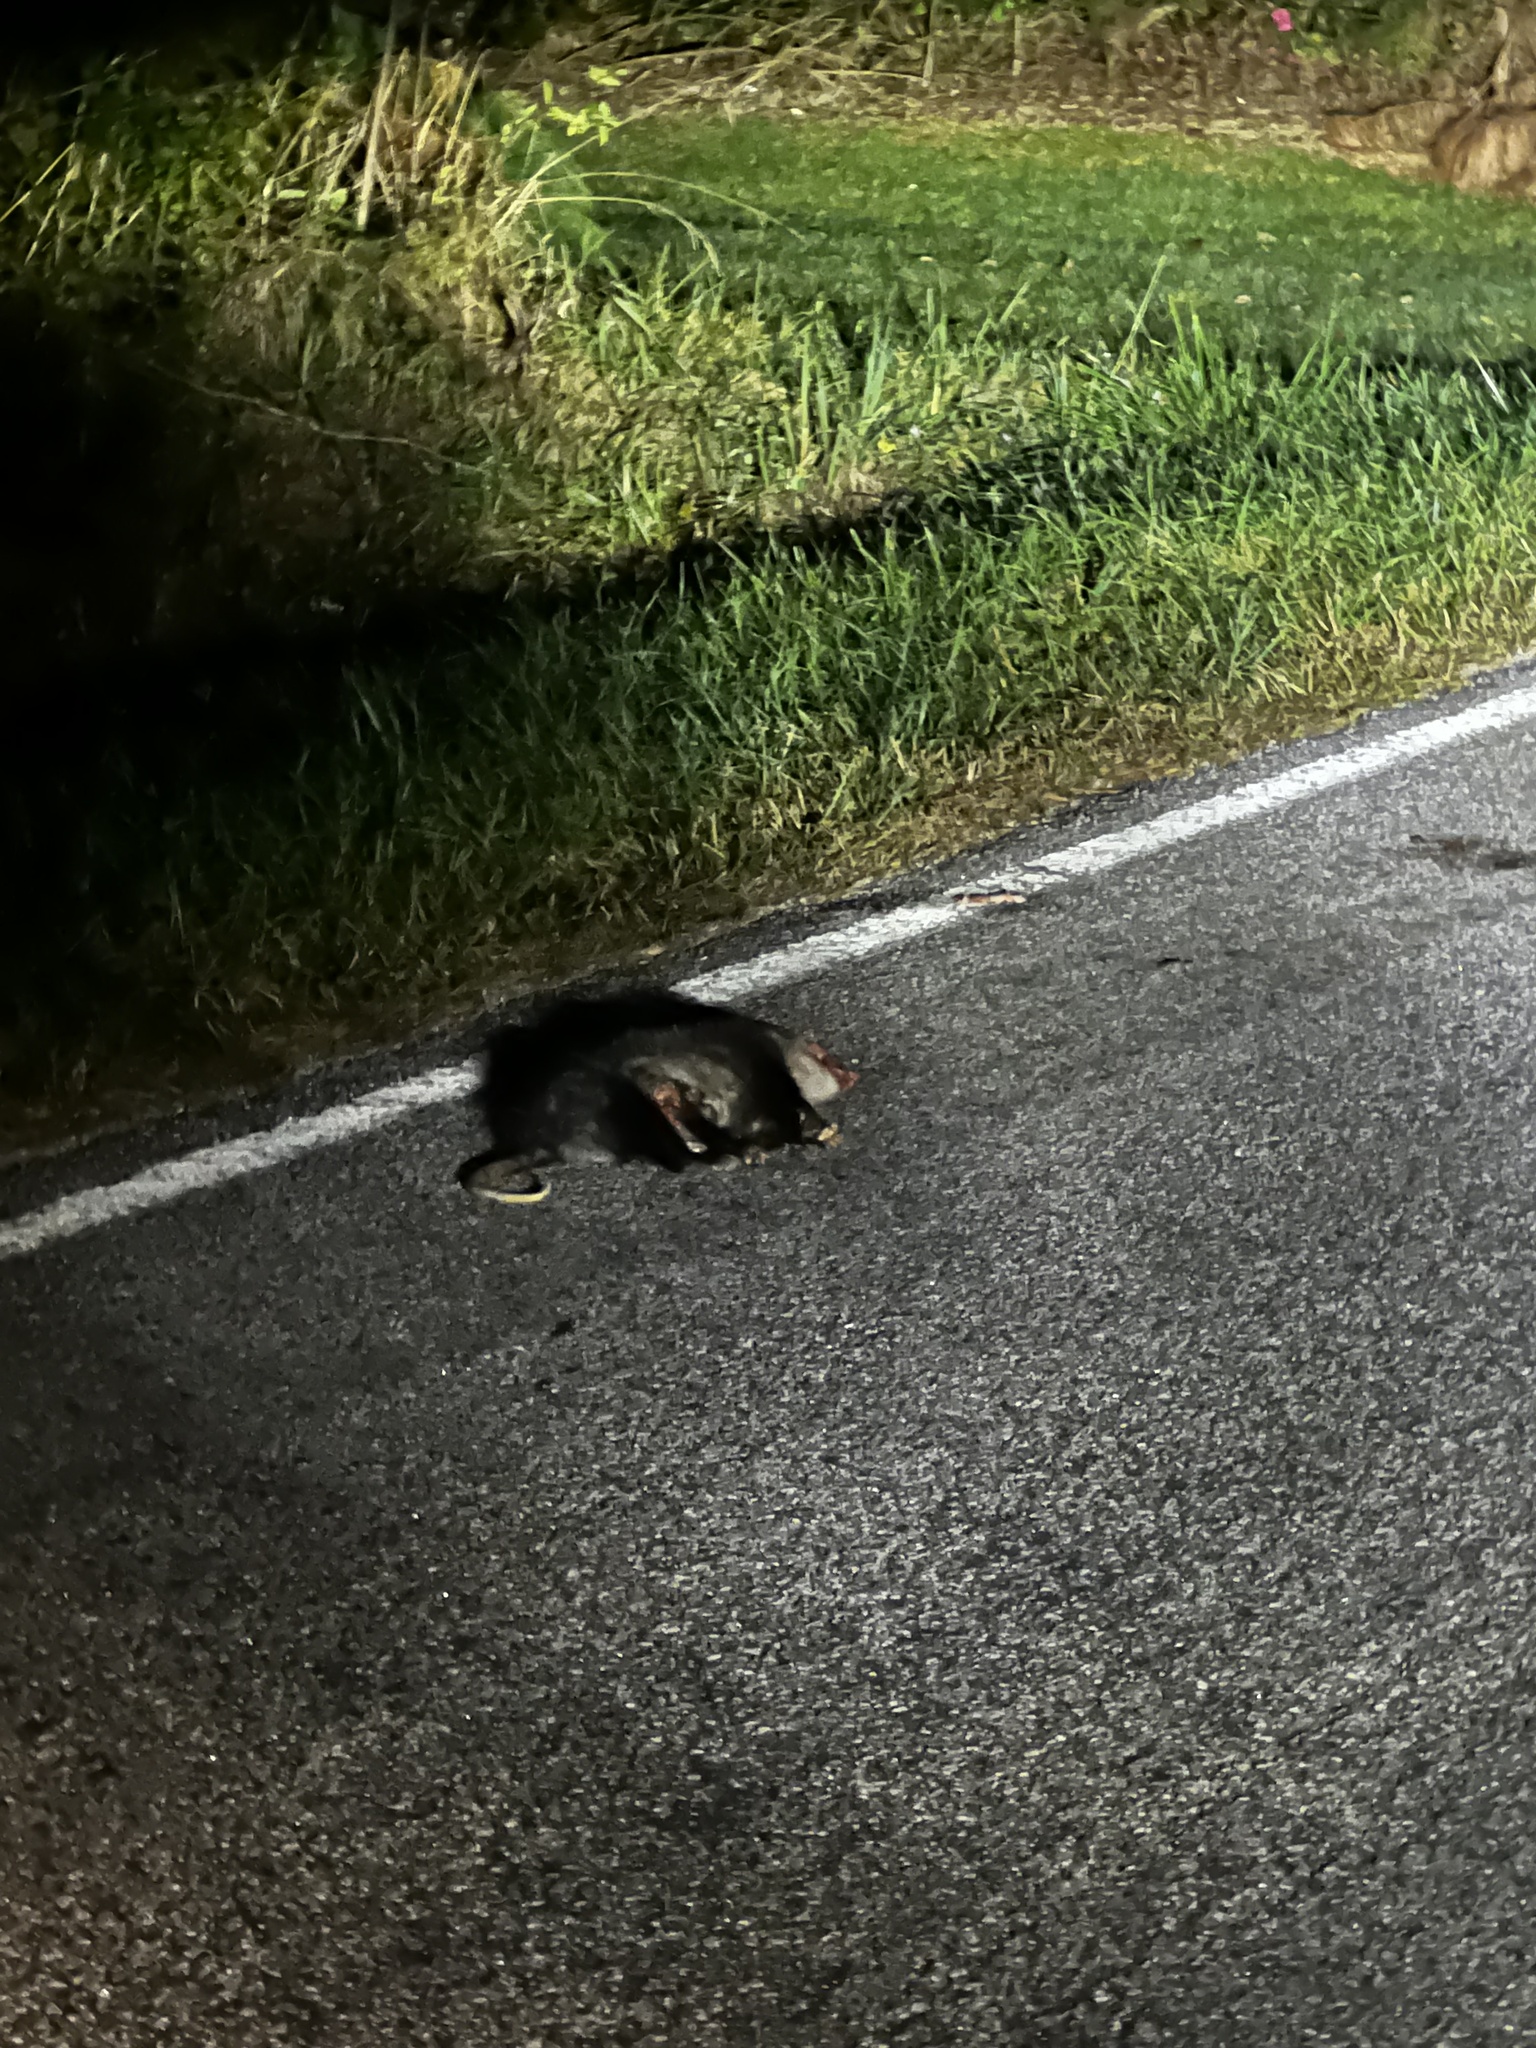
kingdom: Animalia
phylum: Chordata
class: Mammalia
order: Didelphimorphia
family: Didelphidae
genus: Didelphis
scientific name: Didelphis virginiana
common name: Virginia opossum
